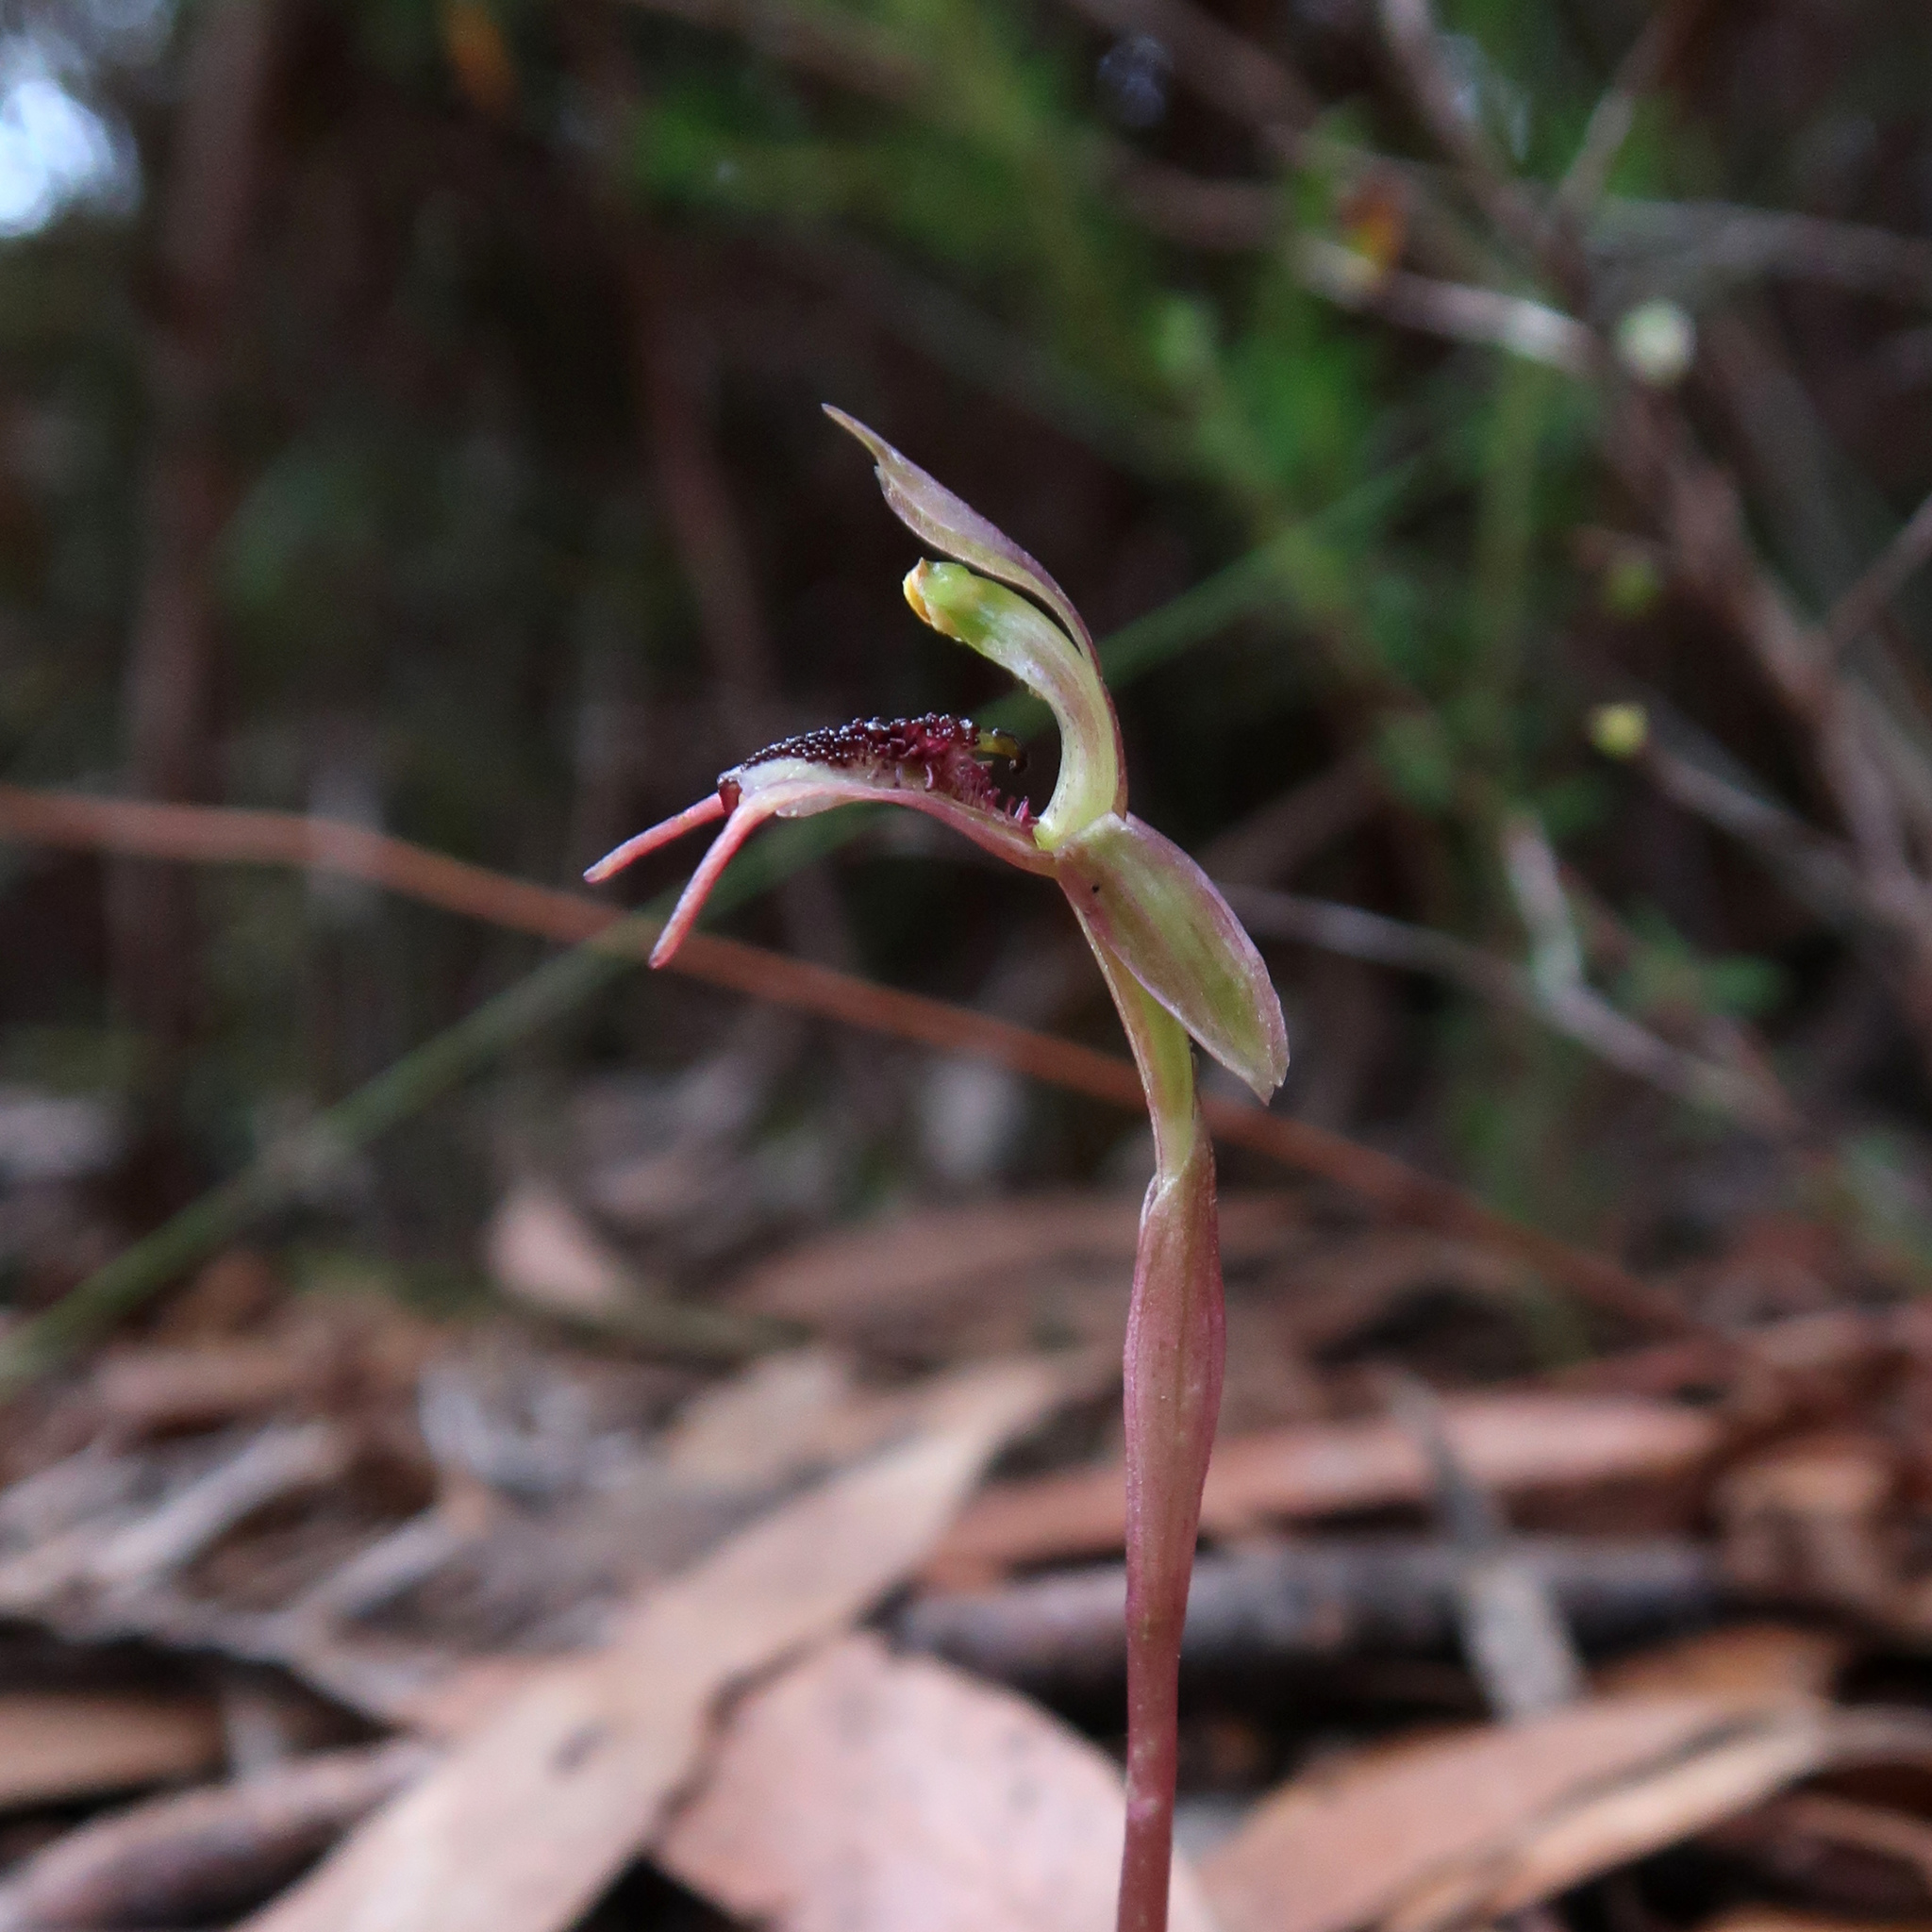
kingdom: Plantae
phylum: Tracheophyta
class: Liliopsida
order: Asparagales
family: Orchidaceae
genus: Chiloglottis
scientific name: Chiloglottis reflexa
